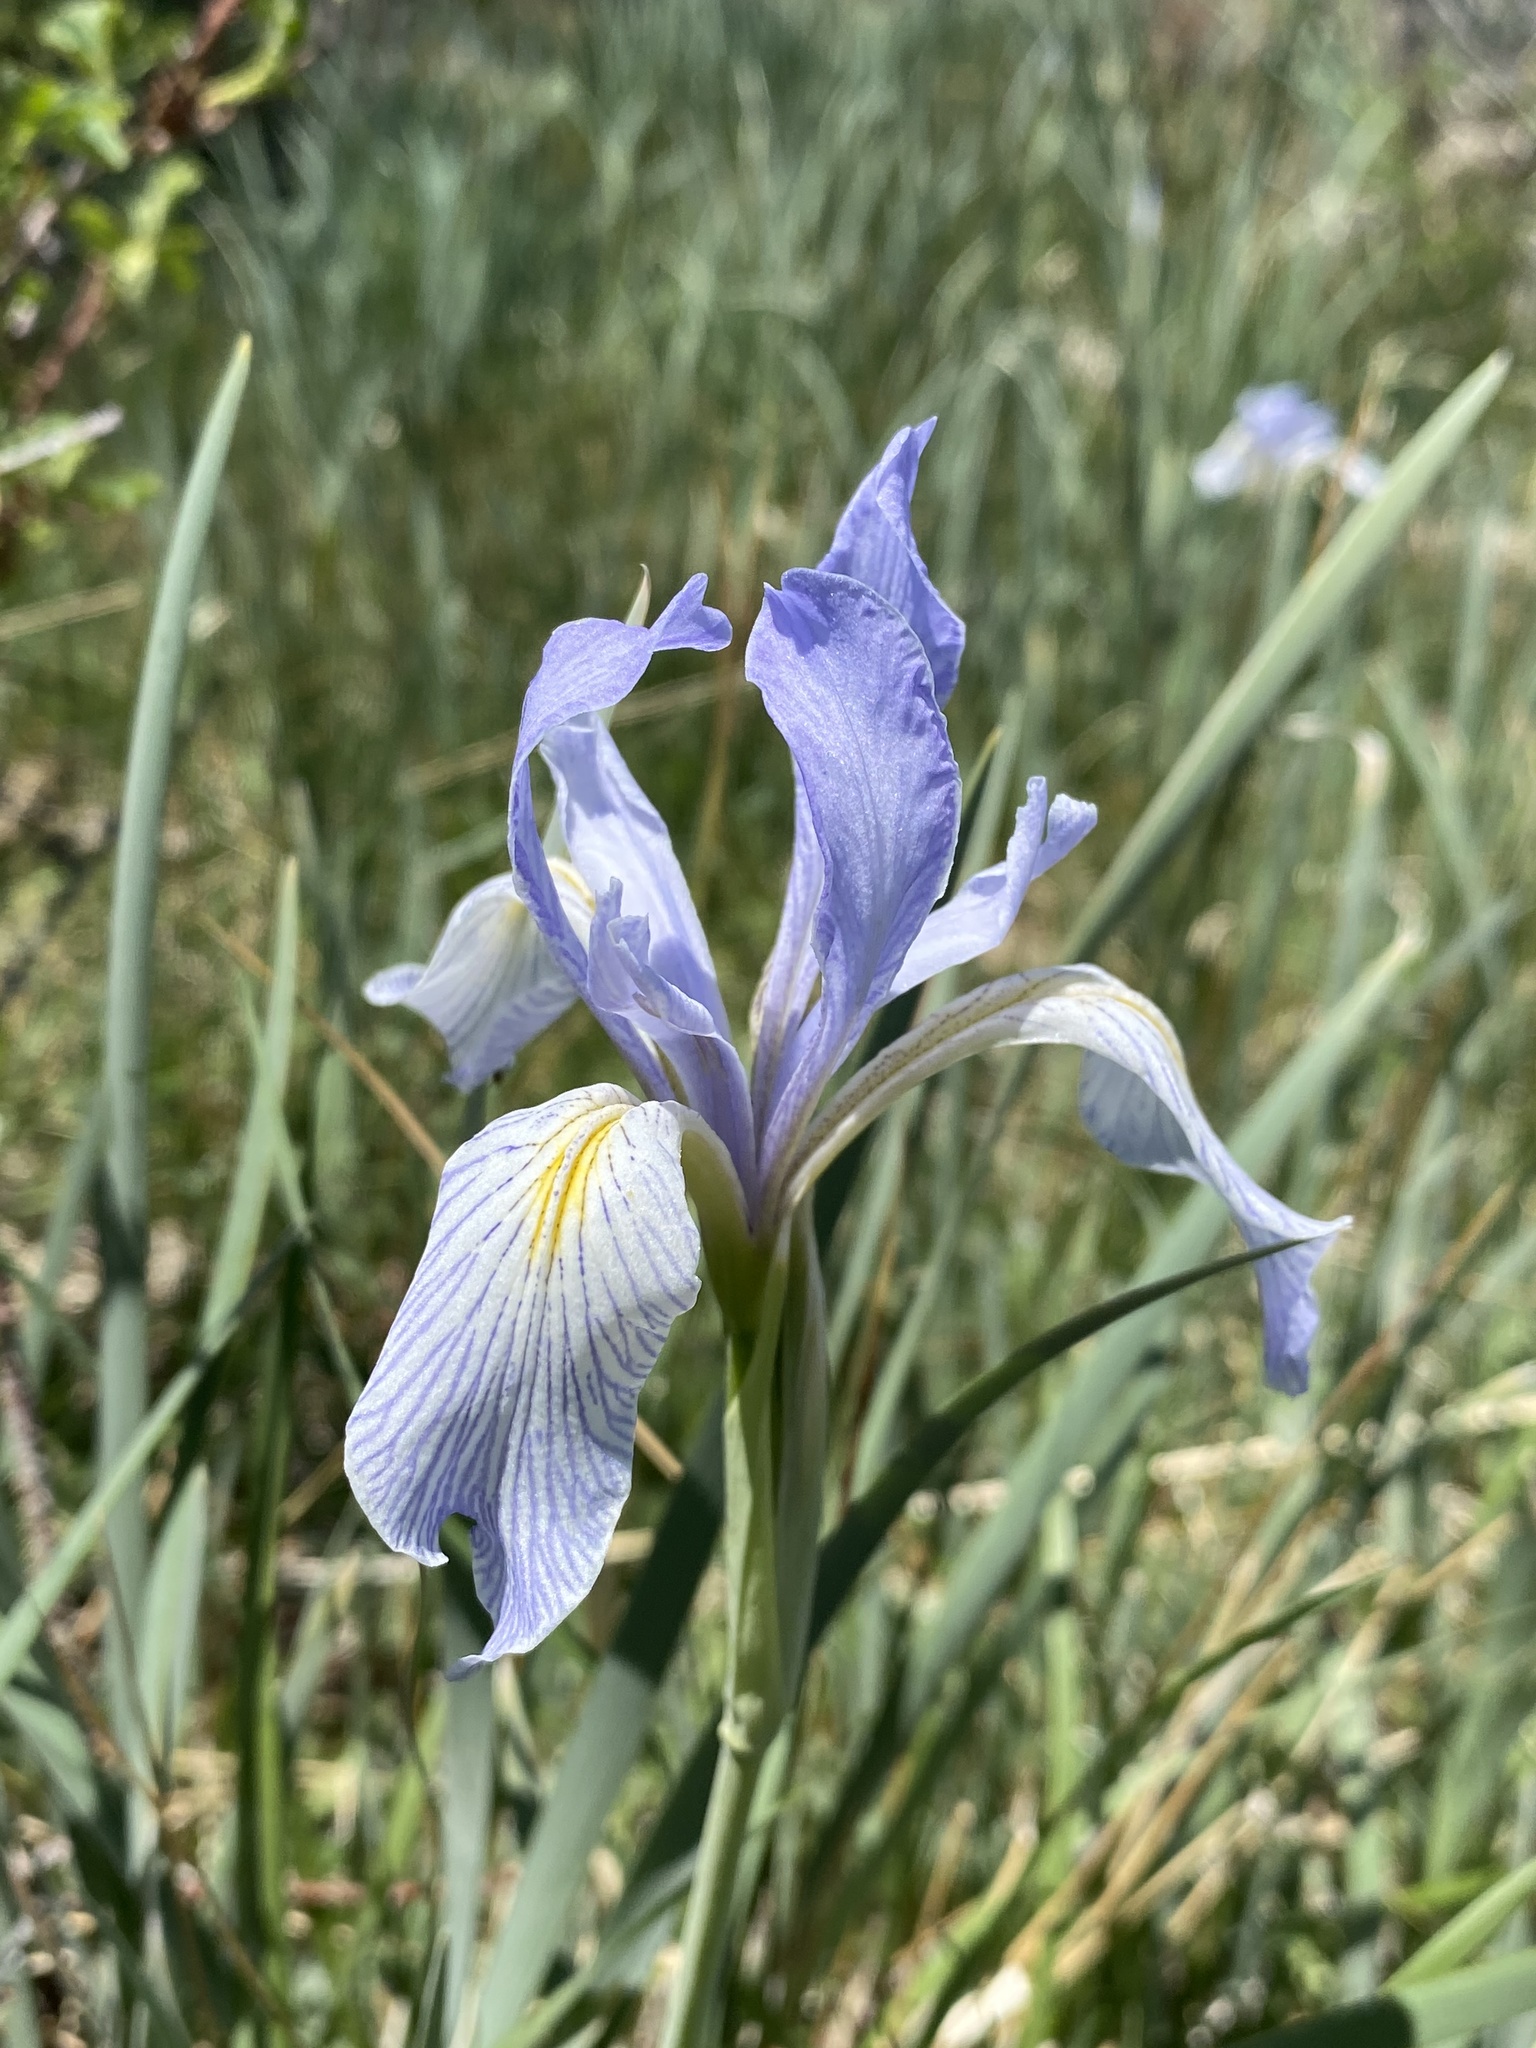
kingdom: Plantae
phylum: Tracheophyta
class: Liliopsida
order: Asparagales
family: Iridaceae
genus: Iris
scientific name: Iris missouriensis
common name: Rocky mountain iris
